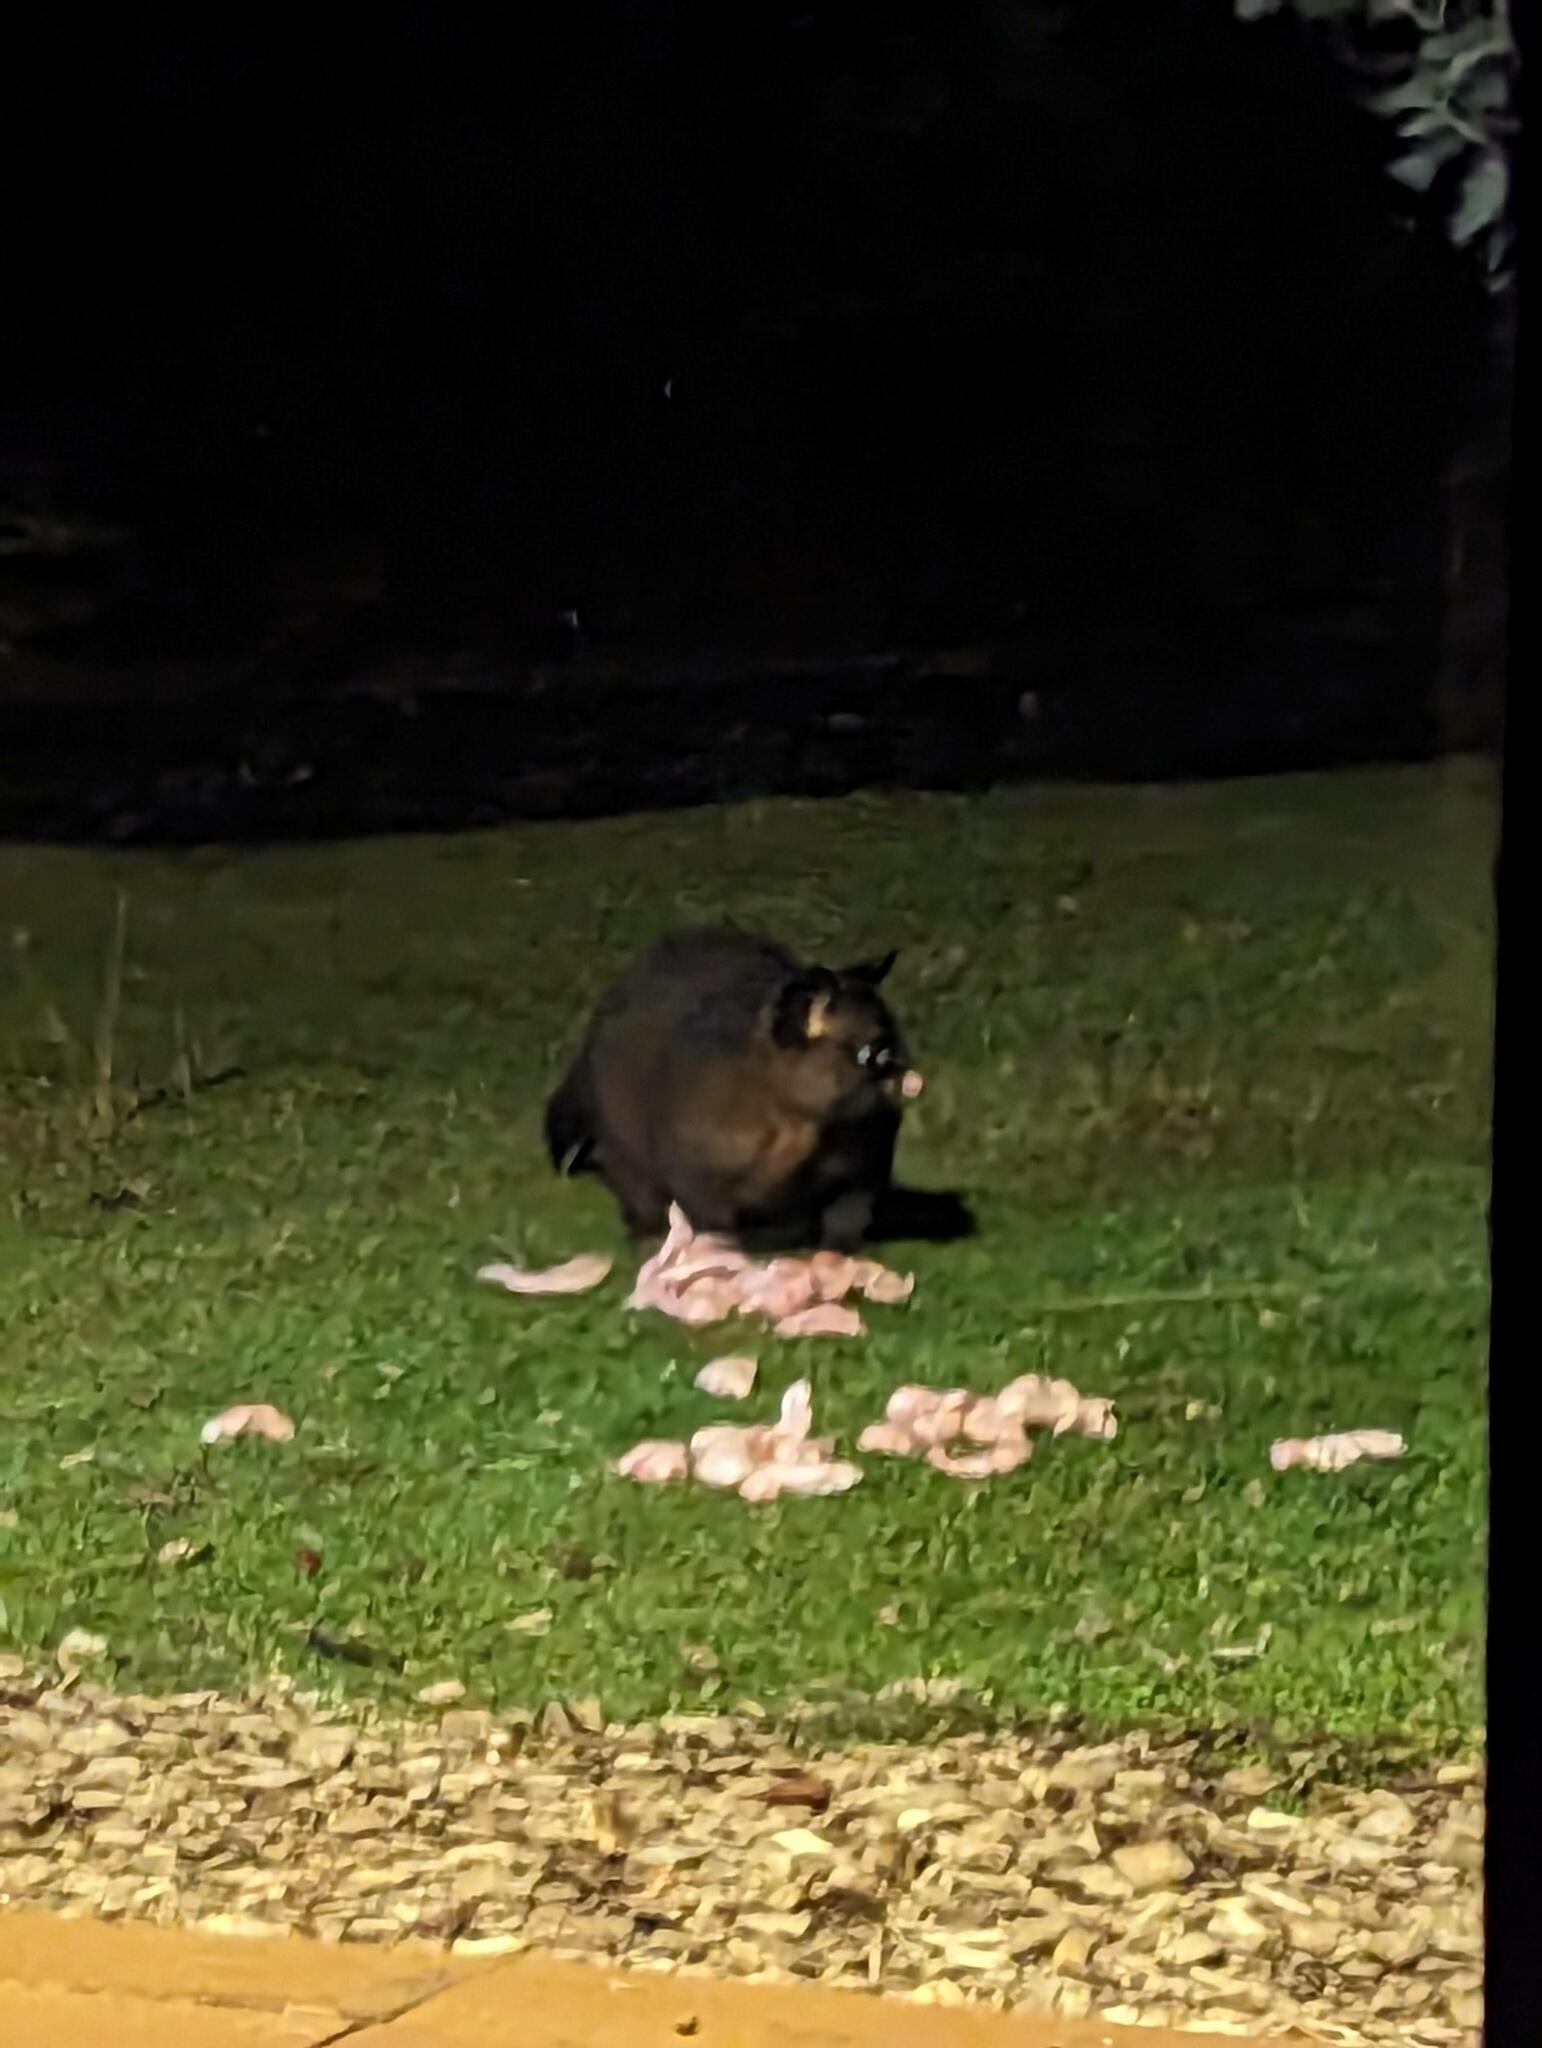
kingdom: Animalia
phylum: Chordata
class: Mammalia
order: Diprotodontia
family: Phalangeridae
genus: Trichosurus
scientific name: Trichosurus vulpecula
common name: Common brushtail
